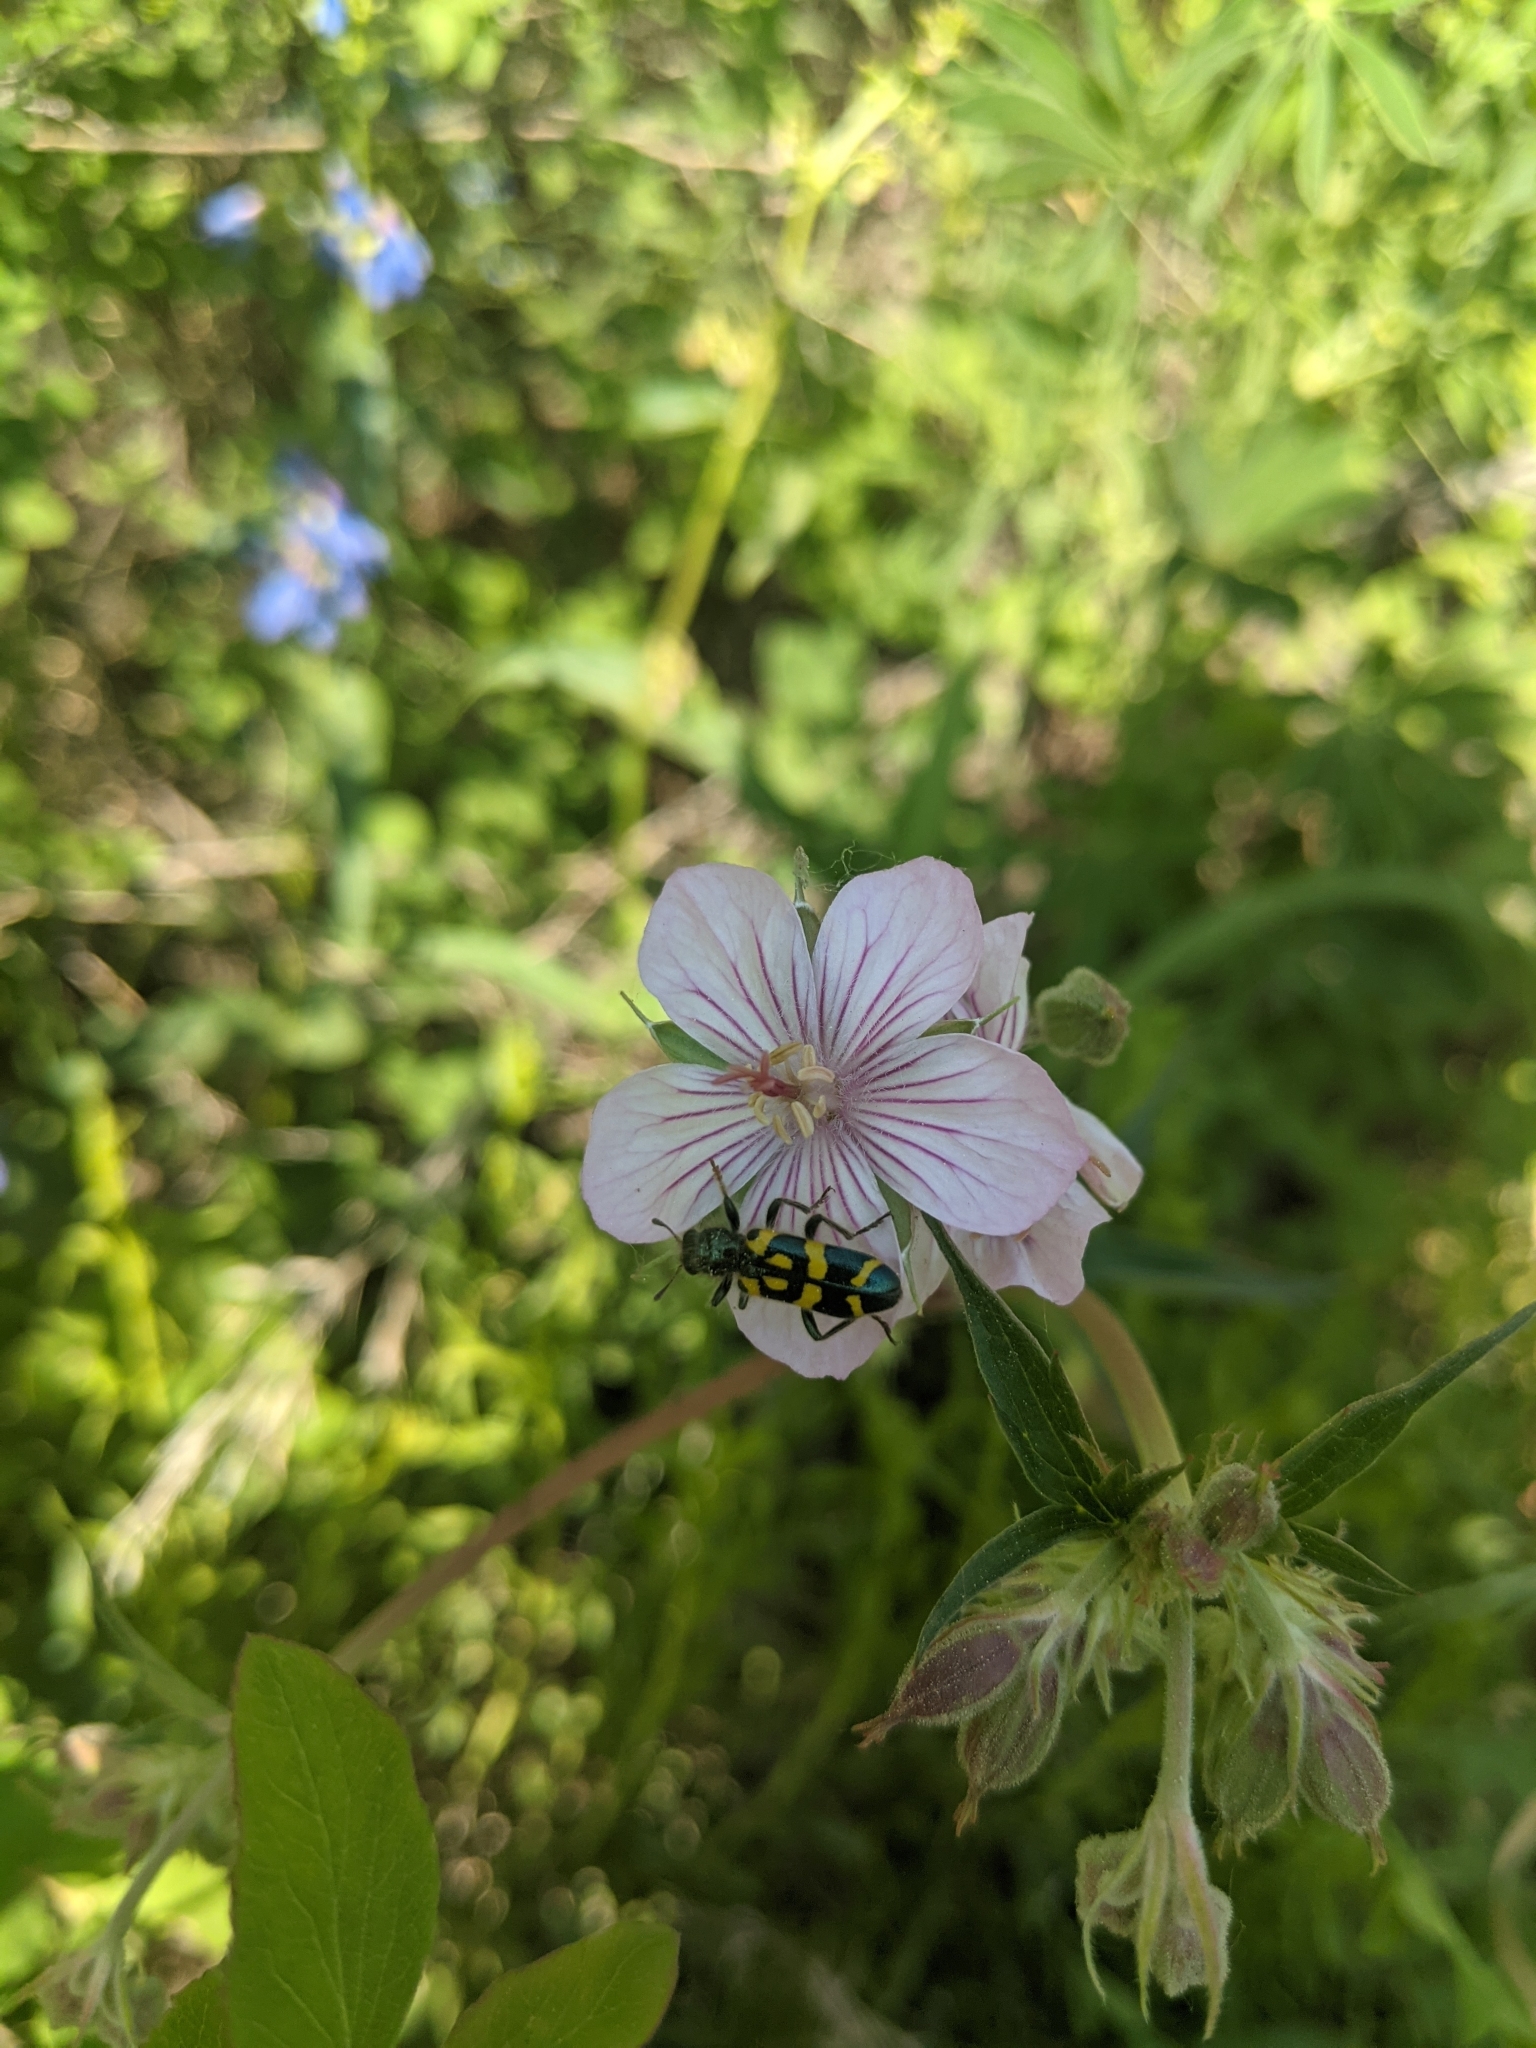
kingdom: Animalia
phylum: Arthropoda
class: Insecta
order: Coleoptera
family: Cleridae
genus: Trichodes
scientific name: Trichodes ornatus
